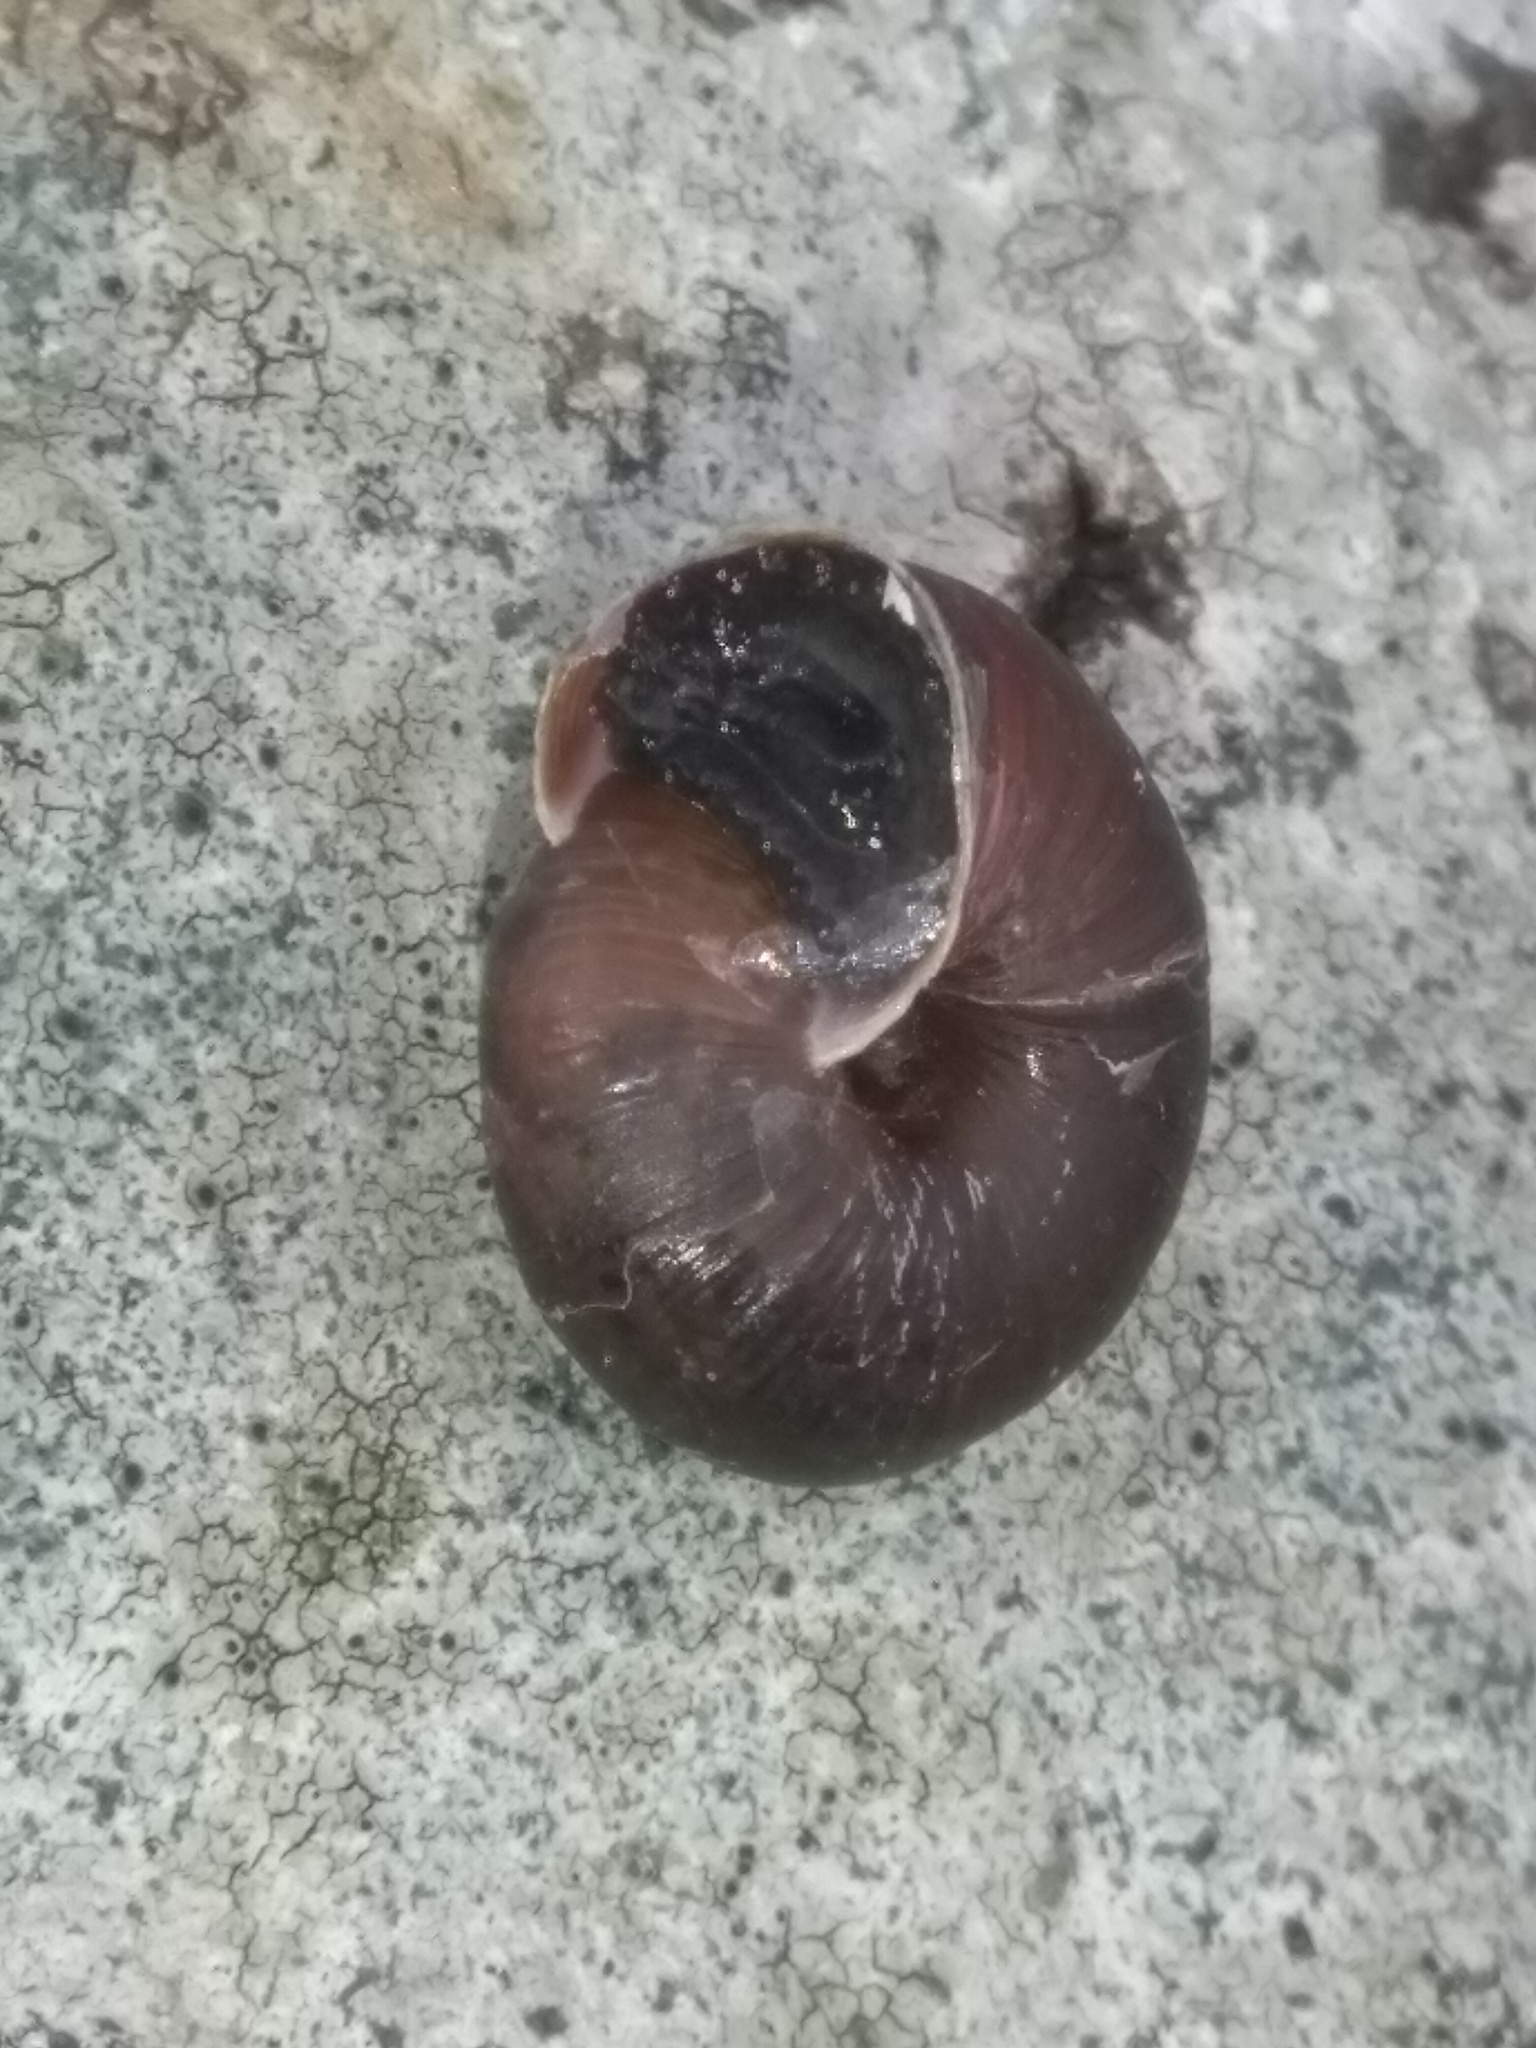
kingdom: Animalia
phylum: Mollusca
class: Gastropoda
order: Stylommatophora
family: Hygromiidae
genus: Trochulus
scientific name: Trochulus striolatus
